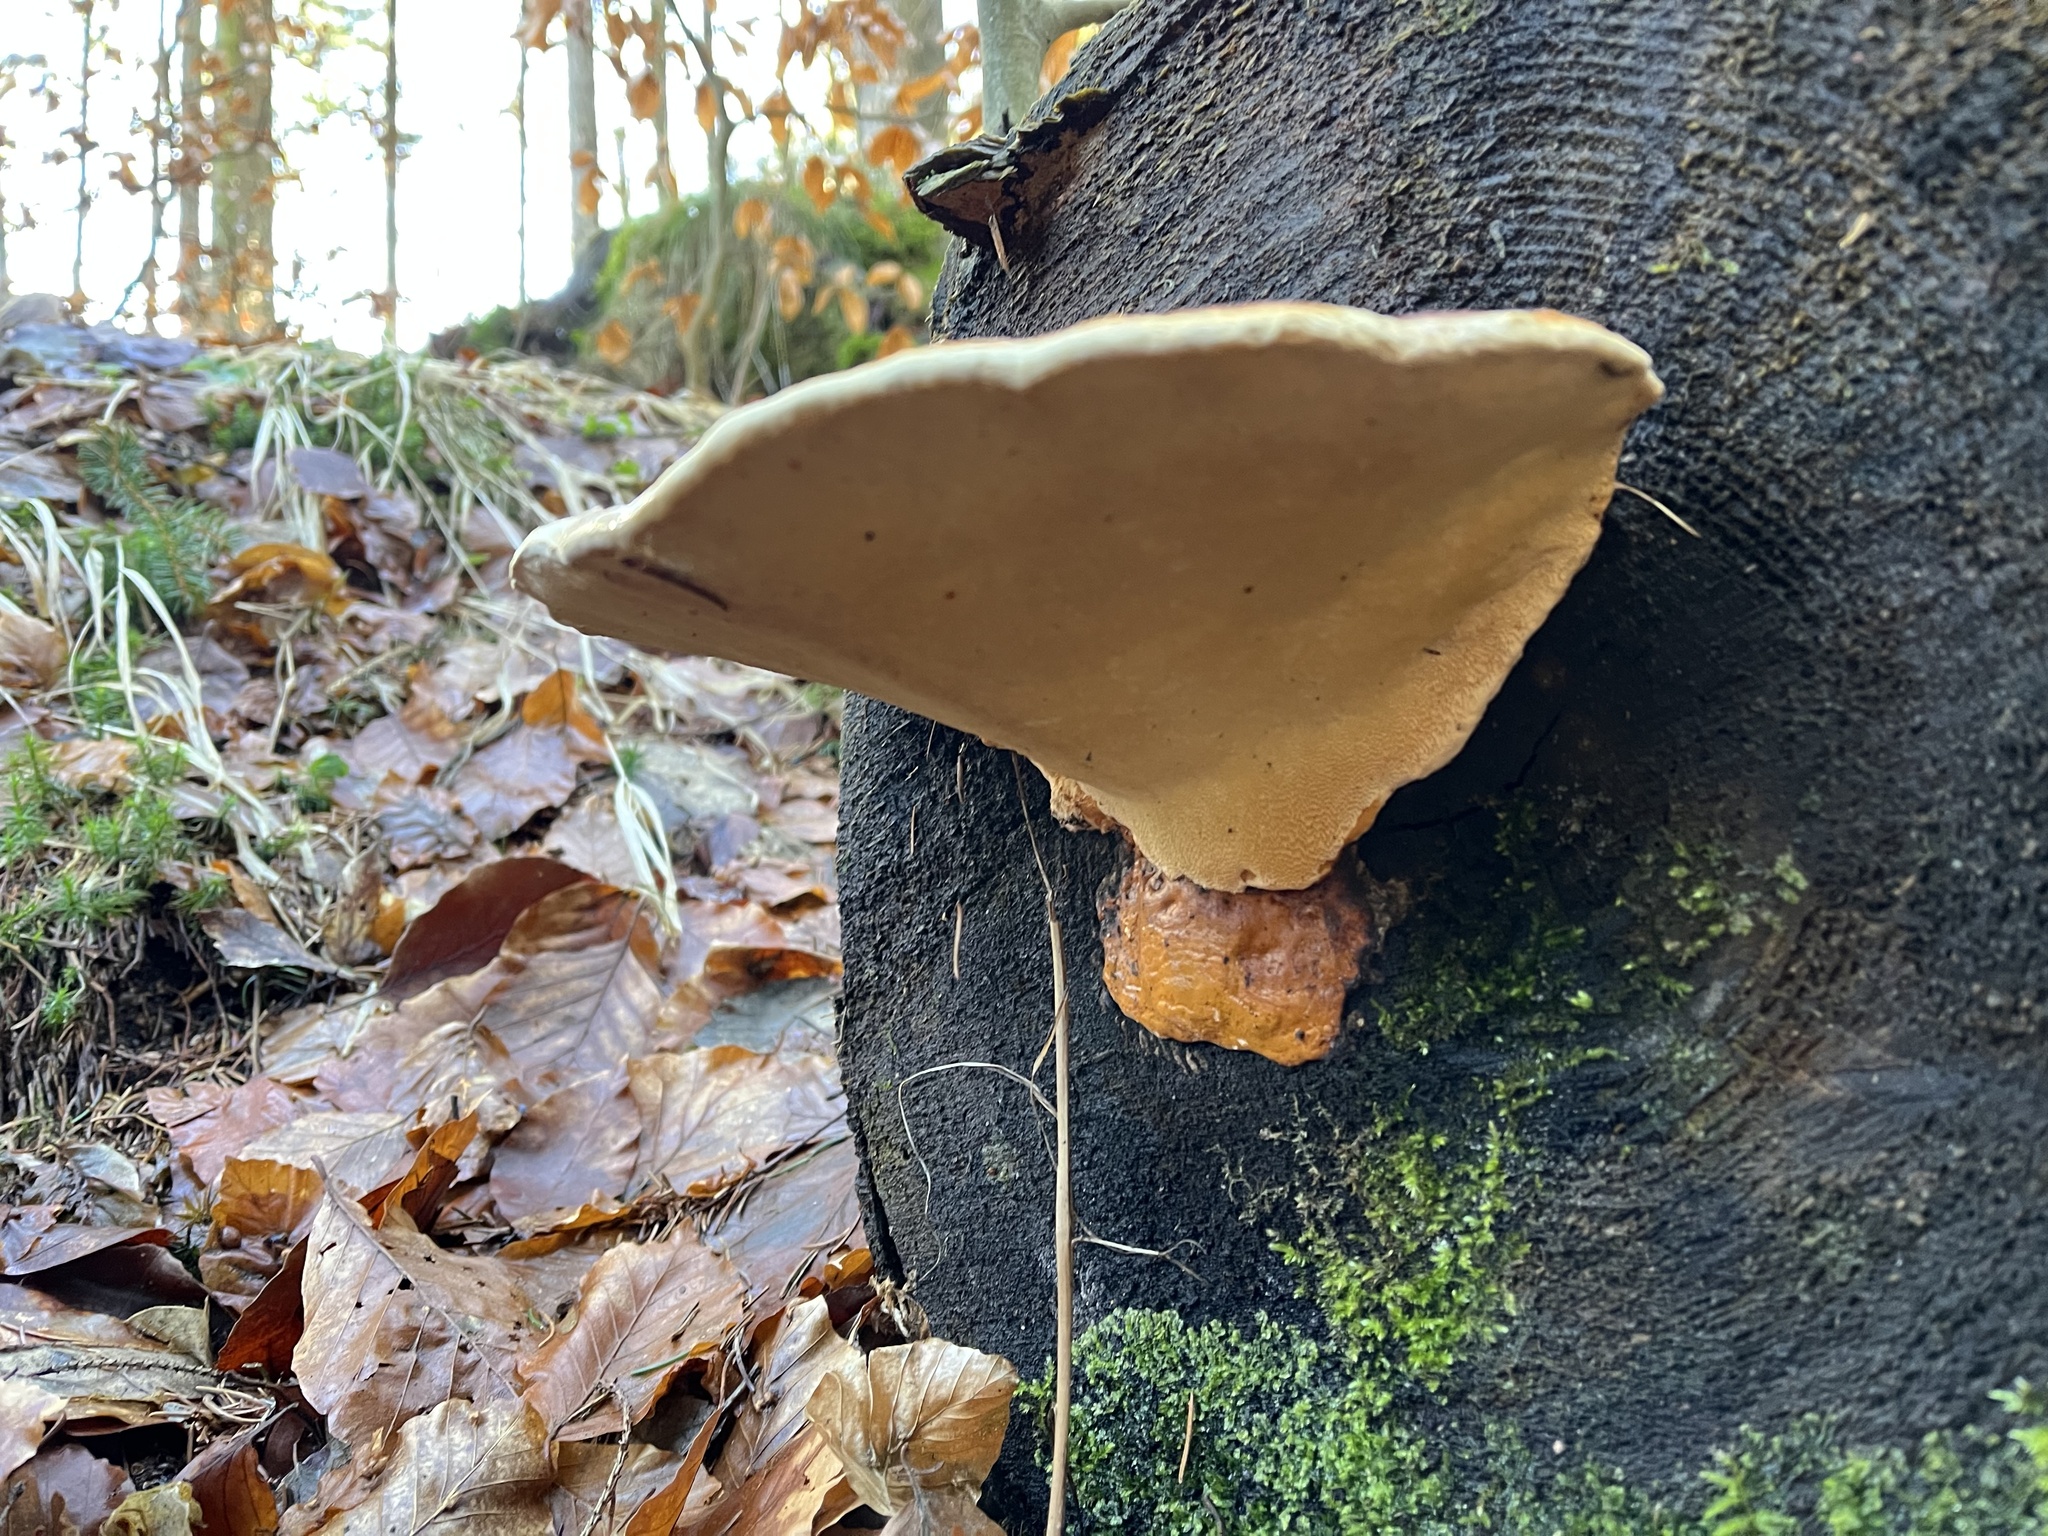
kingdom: Fungi
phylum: Basidiomycota
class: Agaricomycetes
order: Polyporales
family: Fomitopsidaceae
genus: Fomitopsis
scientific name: Fomitopsis pinicola
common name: Red-belted bracket
